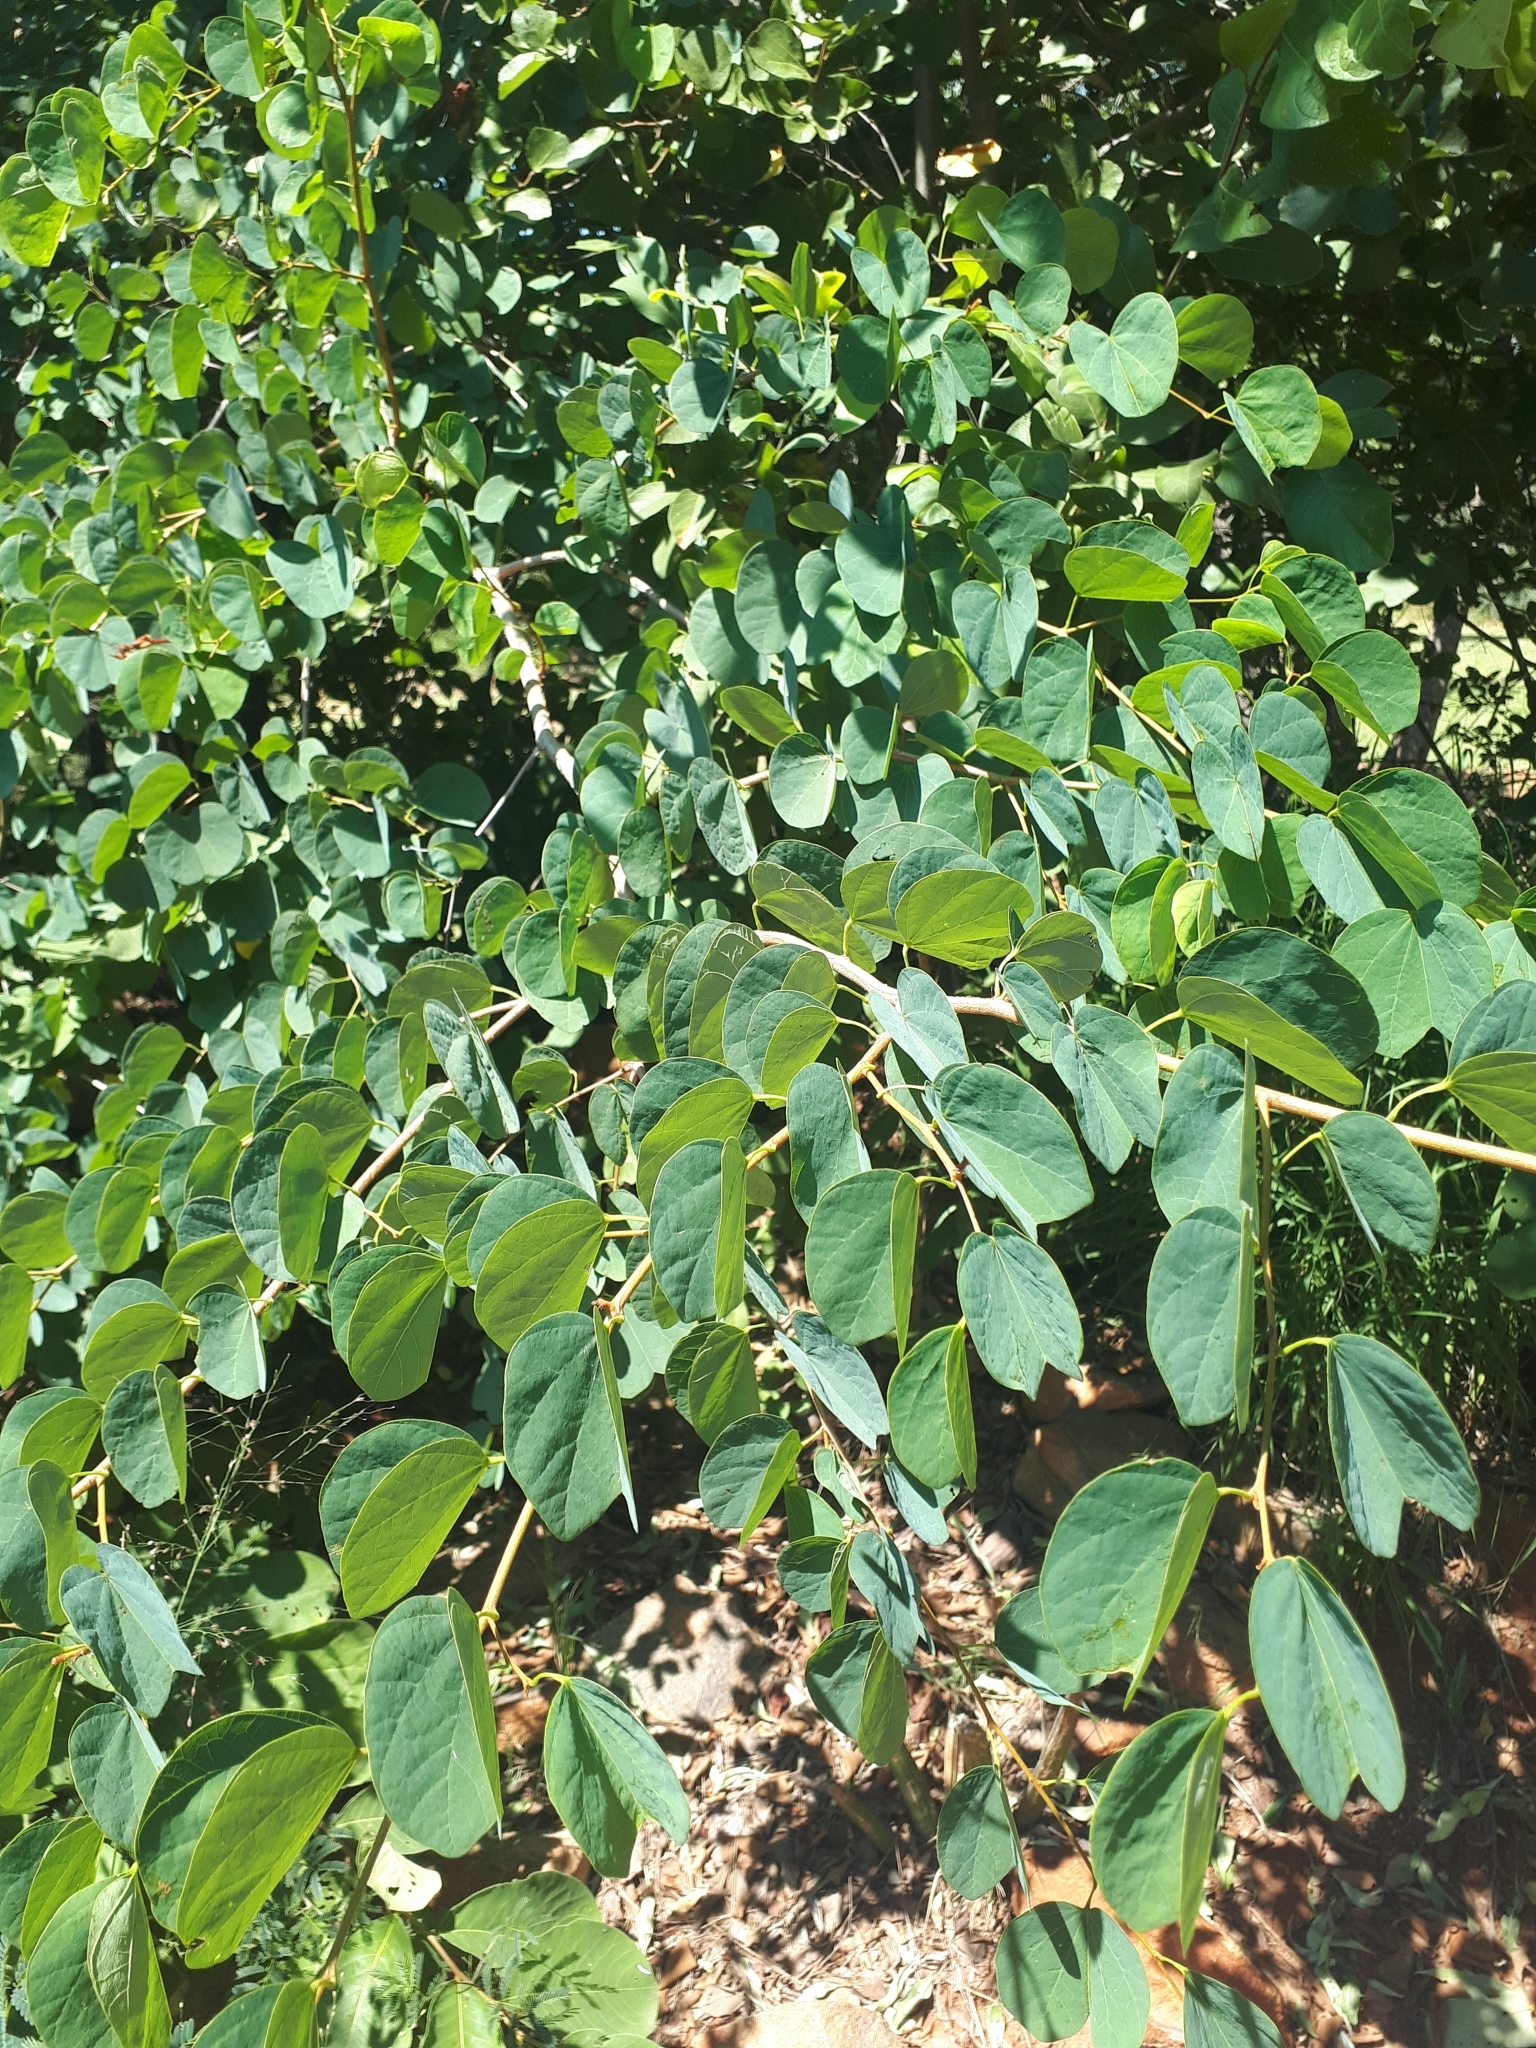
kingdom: Plantae
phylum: Tracheophyta
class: Magnoliopsida
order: Fabales
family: Fabaceae
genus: Bauhinia
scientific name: Bauhinia galpinii
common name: African plume
